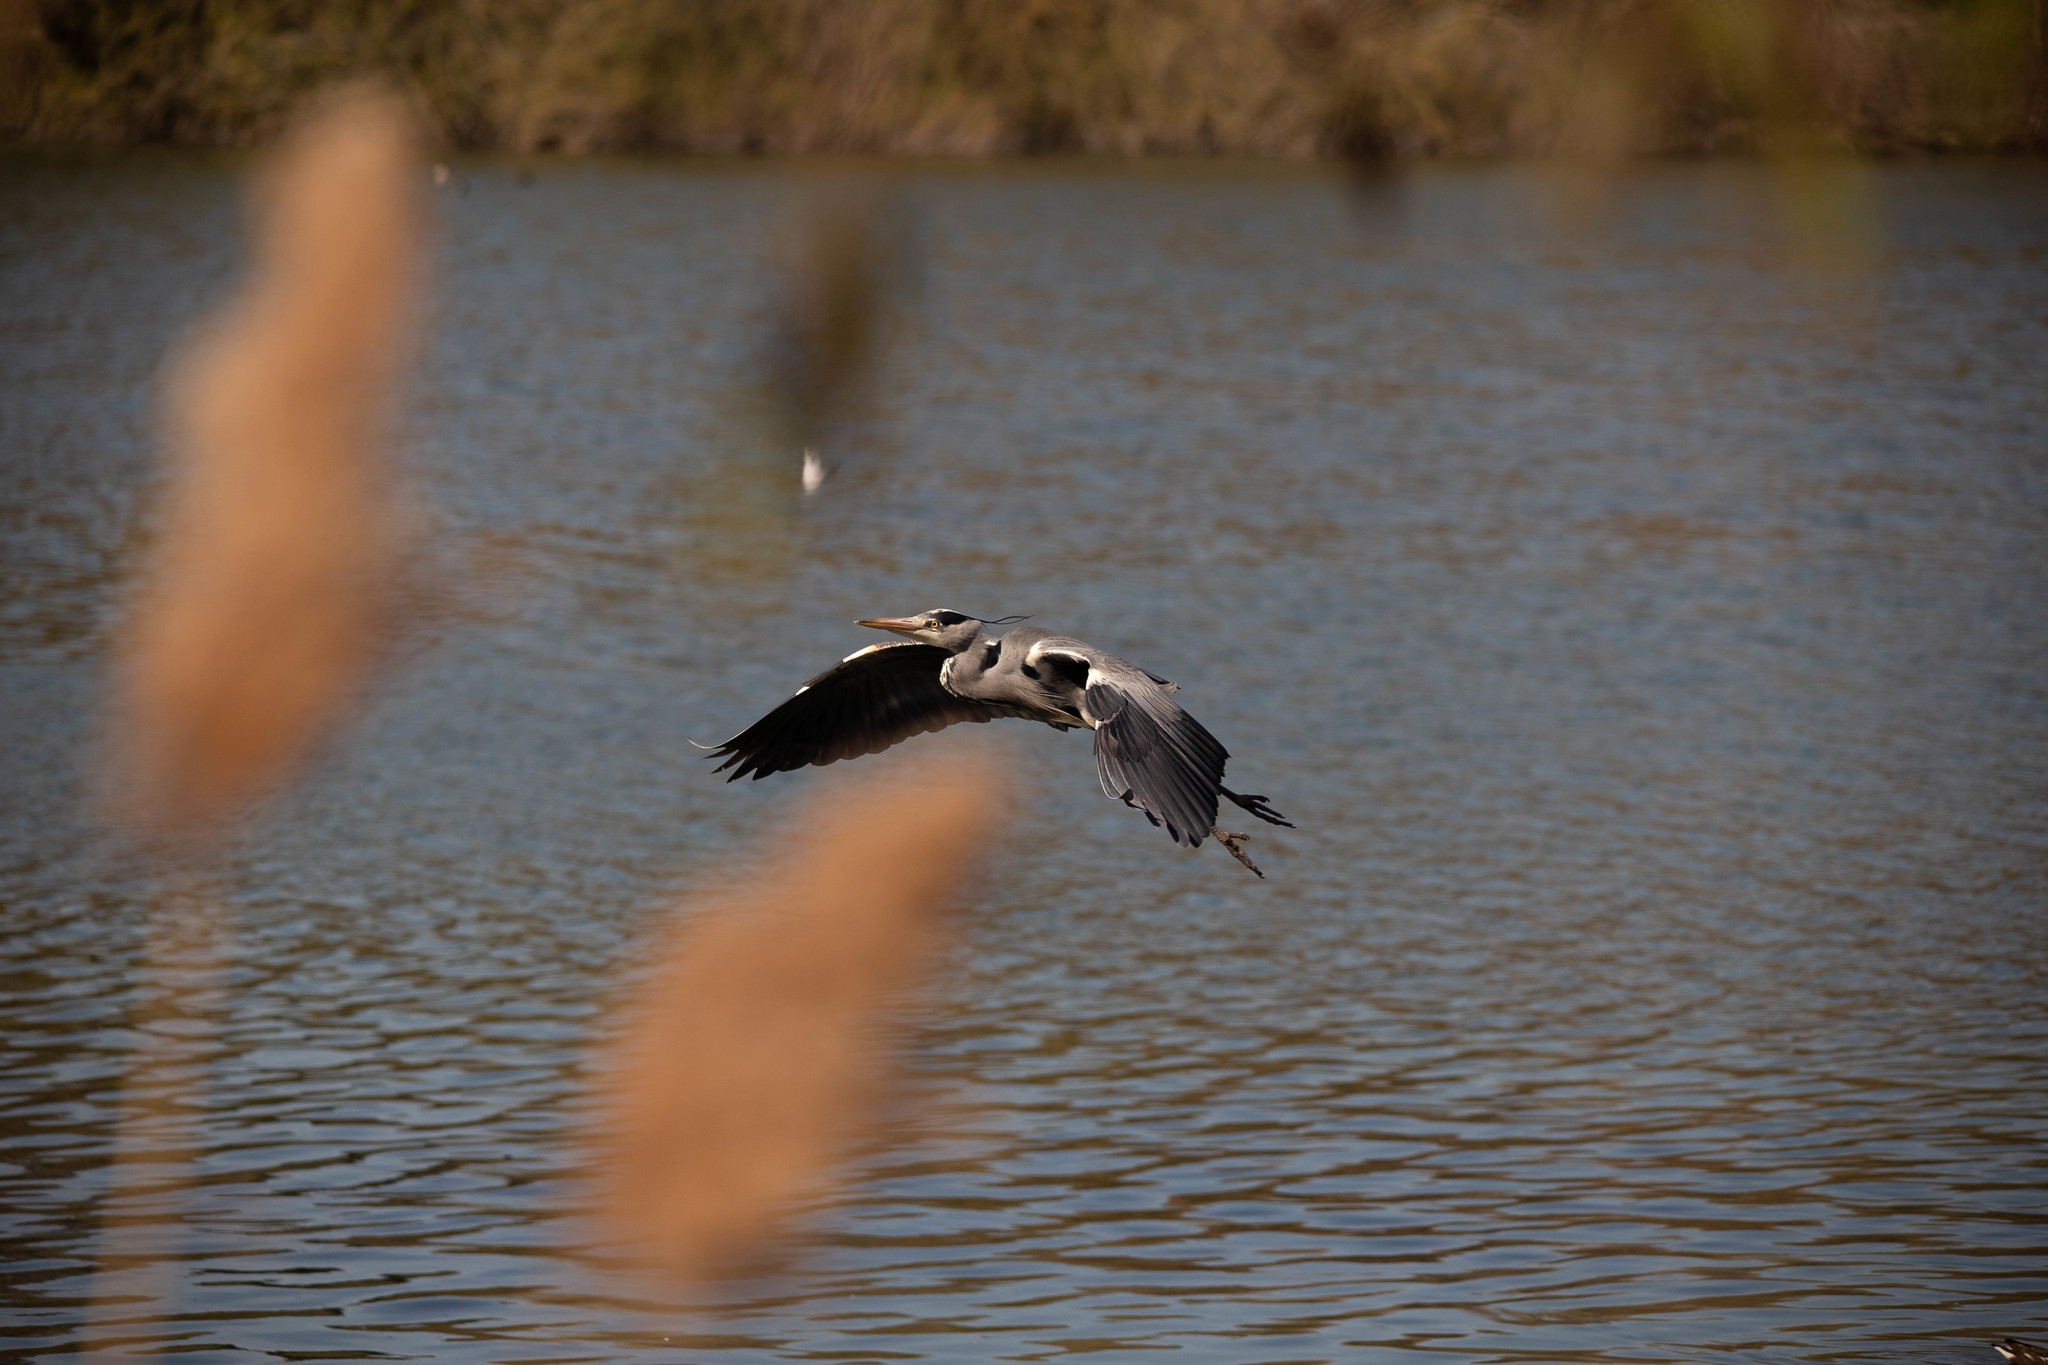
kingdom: Animalia
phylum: Chordata
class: Aves
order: Pelecaniformes
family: Ardeidae
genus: Ardea
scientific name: Ardea cinerea
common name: Grey heron
